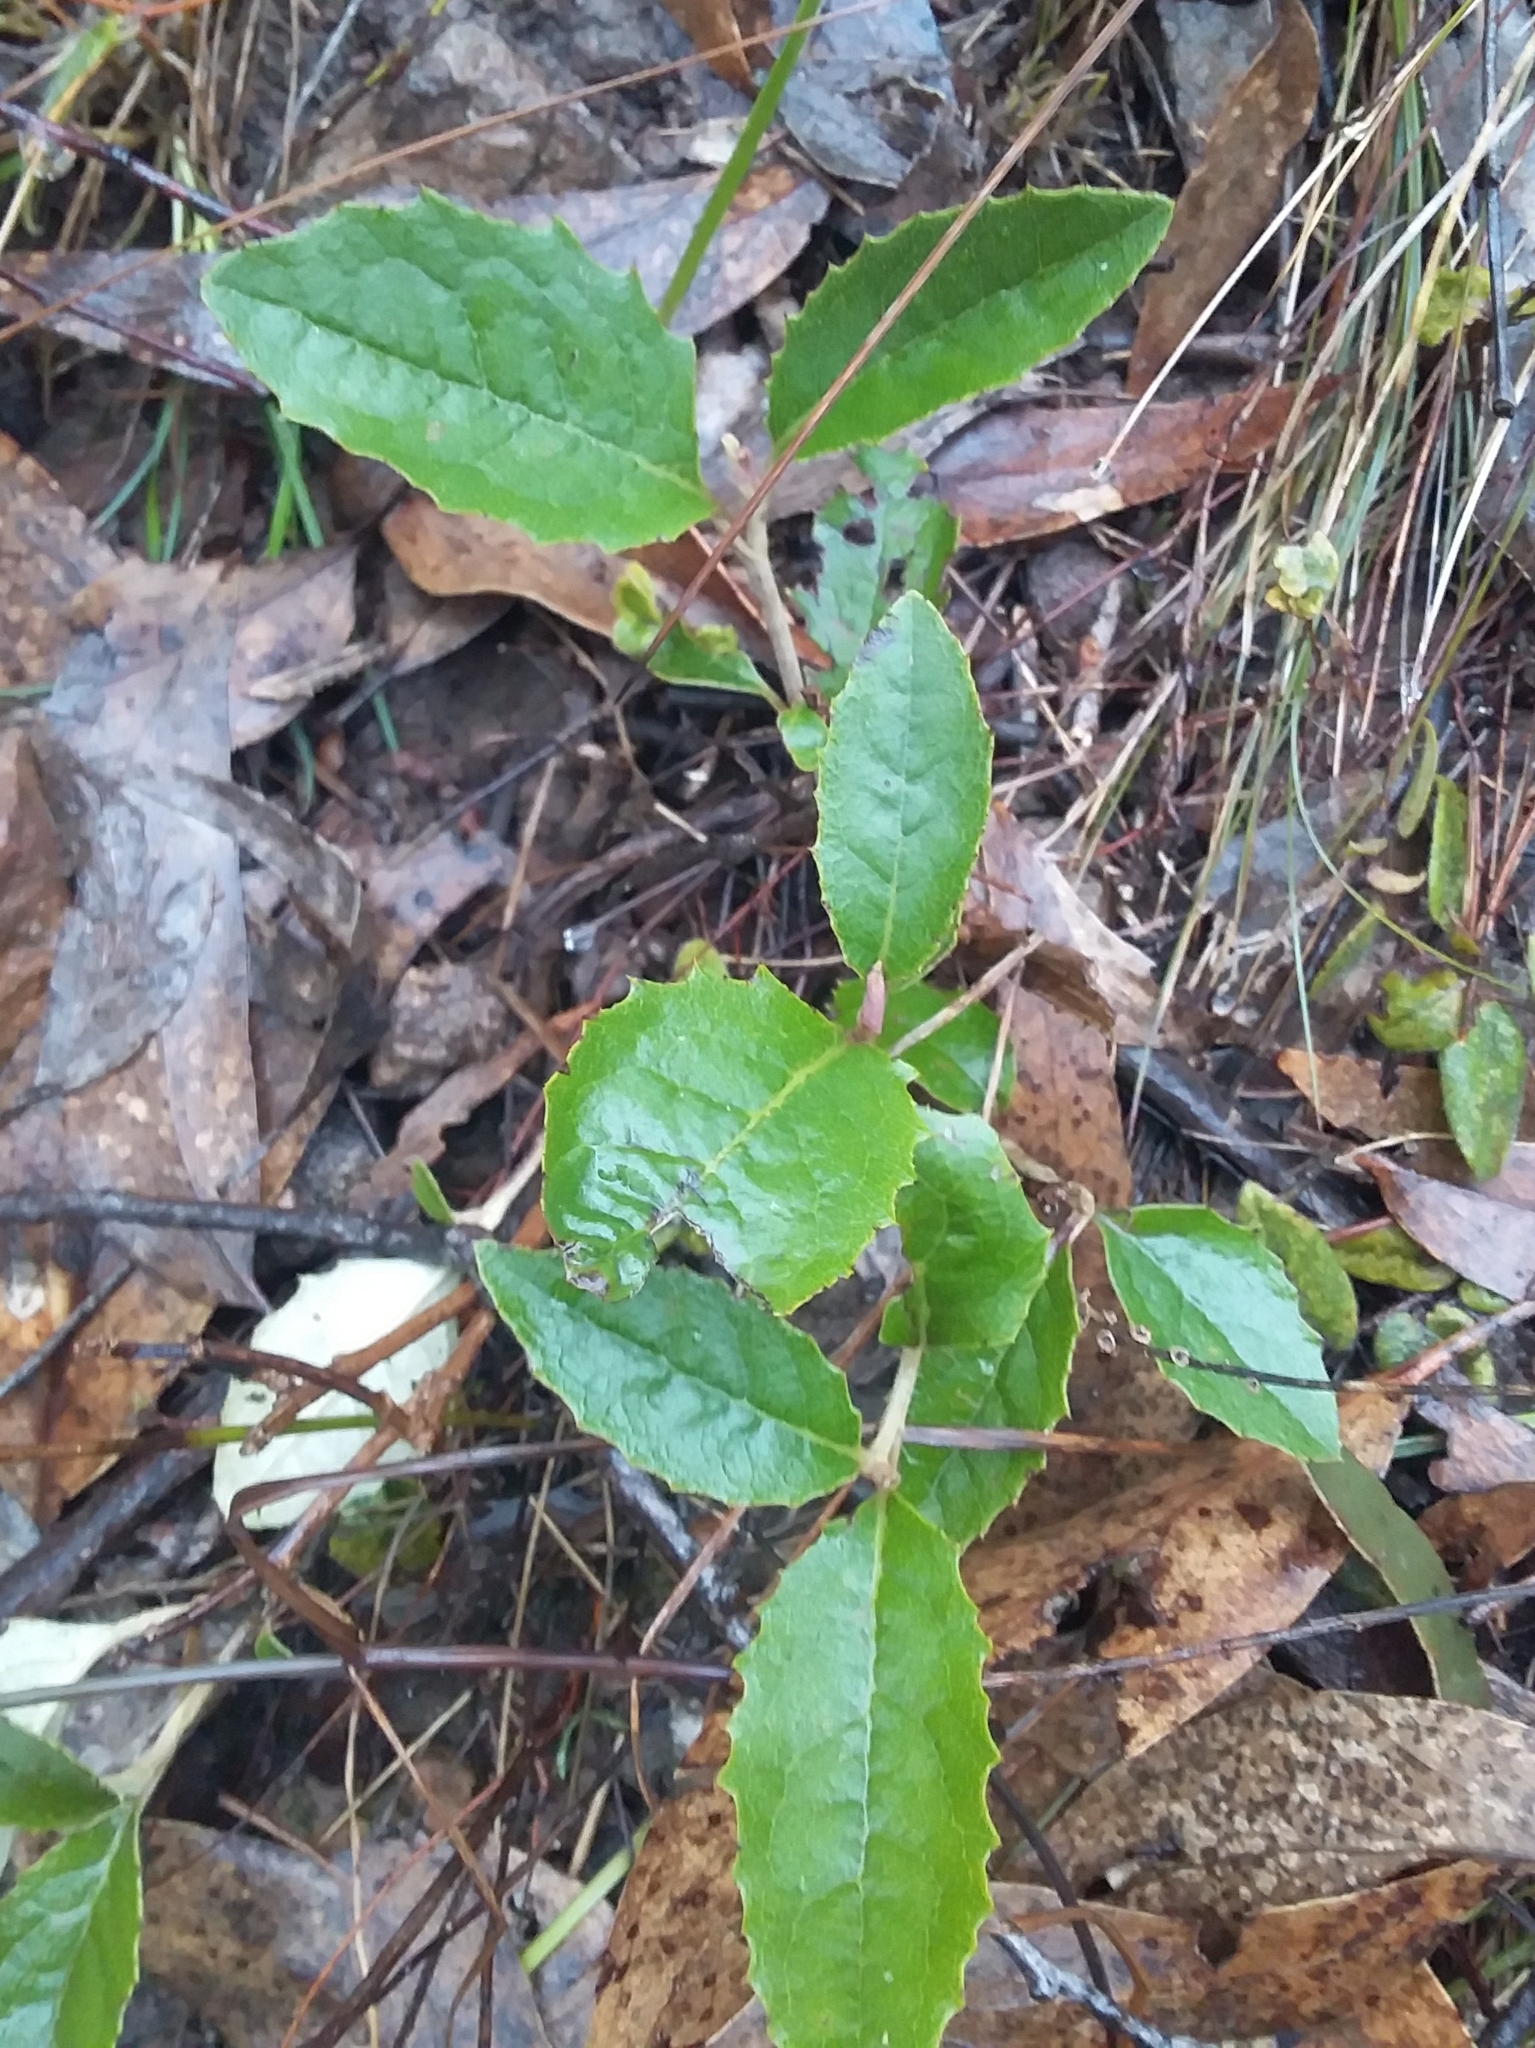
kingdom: Plantae
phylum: Tracheophyta
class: Magnoliopsida
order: Asterales
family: Asteraceae
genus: Olearia
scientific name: Olearia grandiflora
